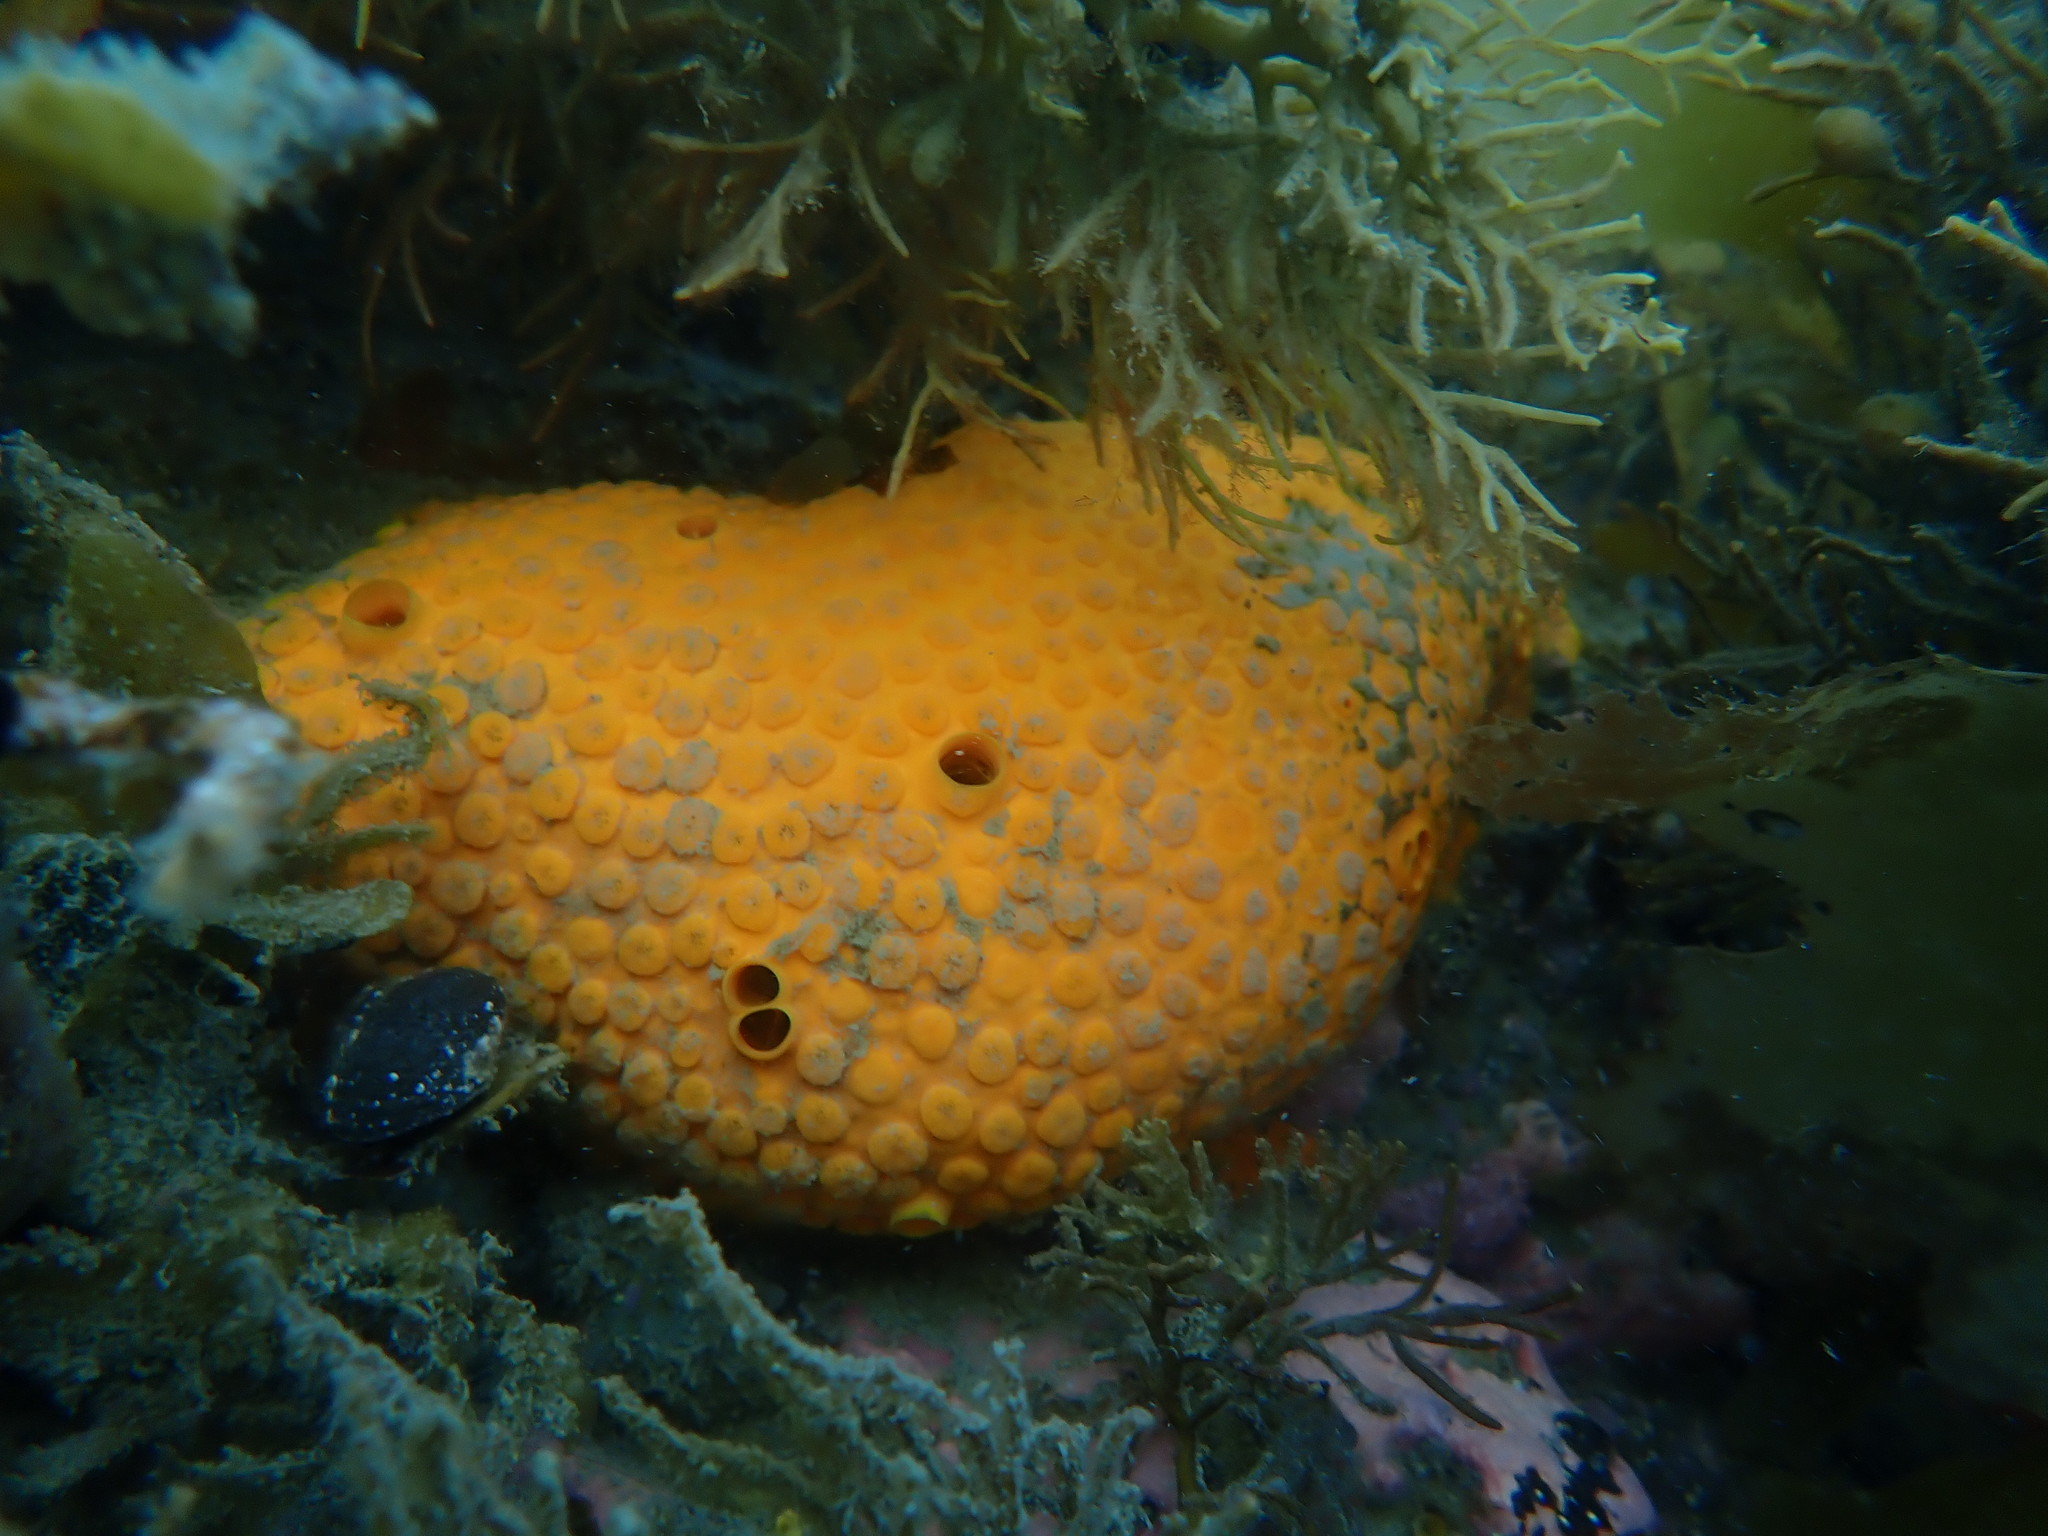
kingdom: Animalia
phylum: Porifera
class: Demospongiae
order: Clionaida
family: Clionaidae
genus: Cliona
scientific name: Cliona celata
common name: Boring sponge
